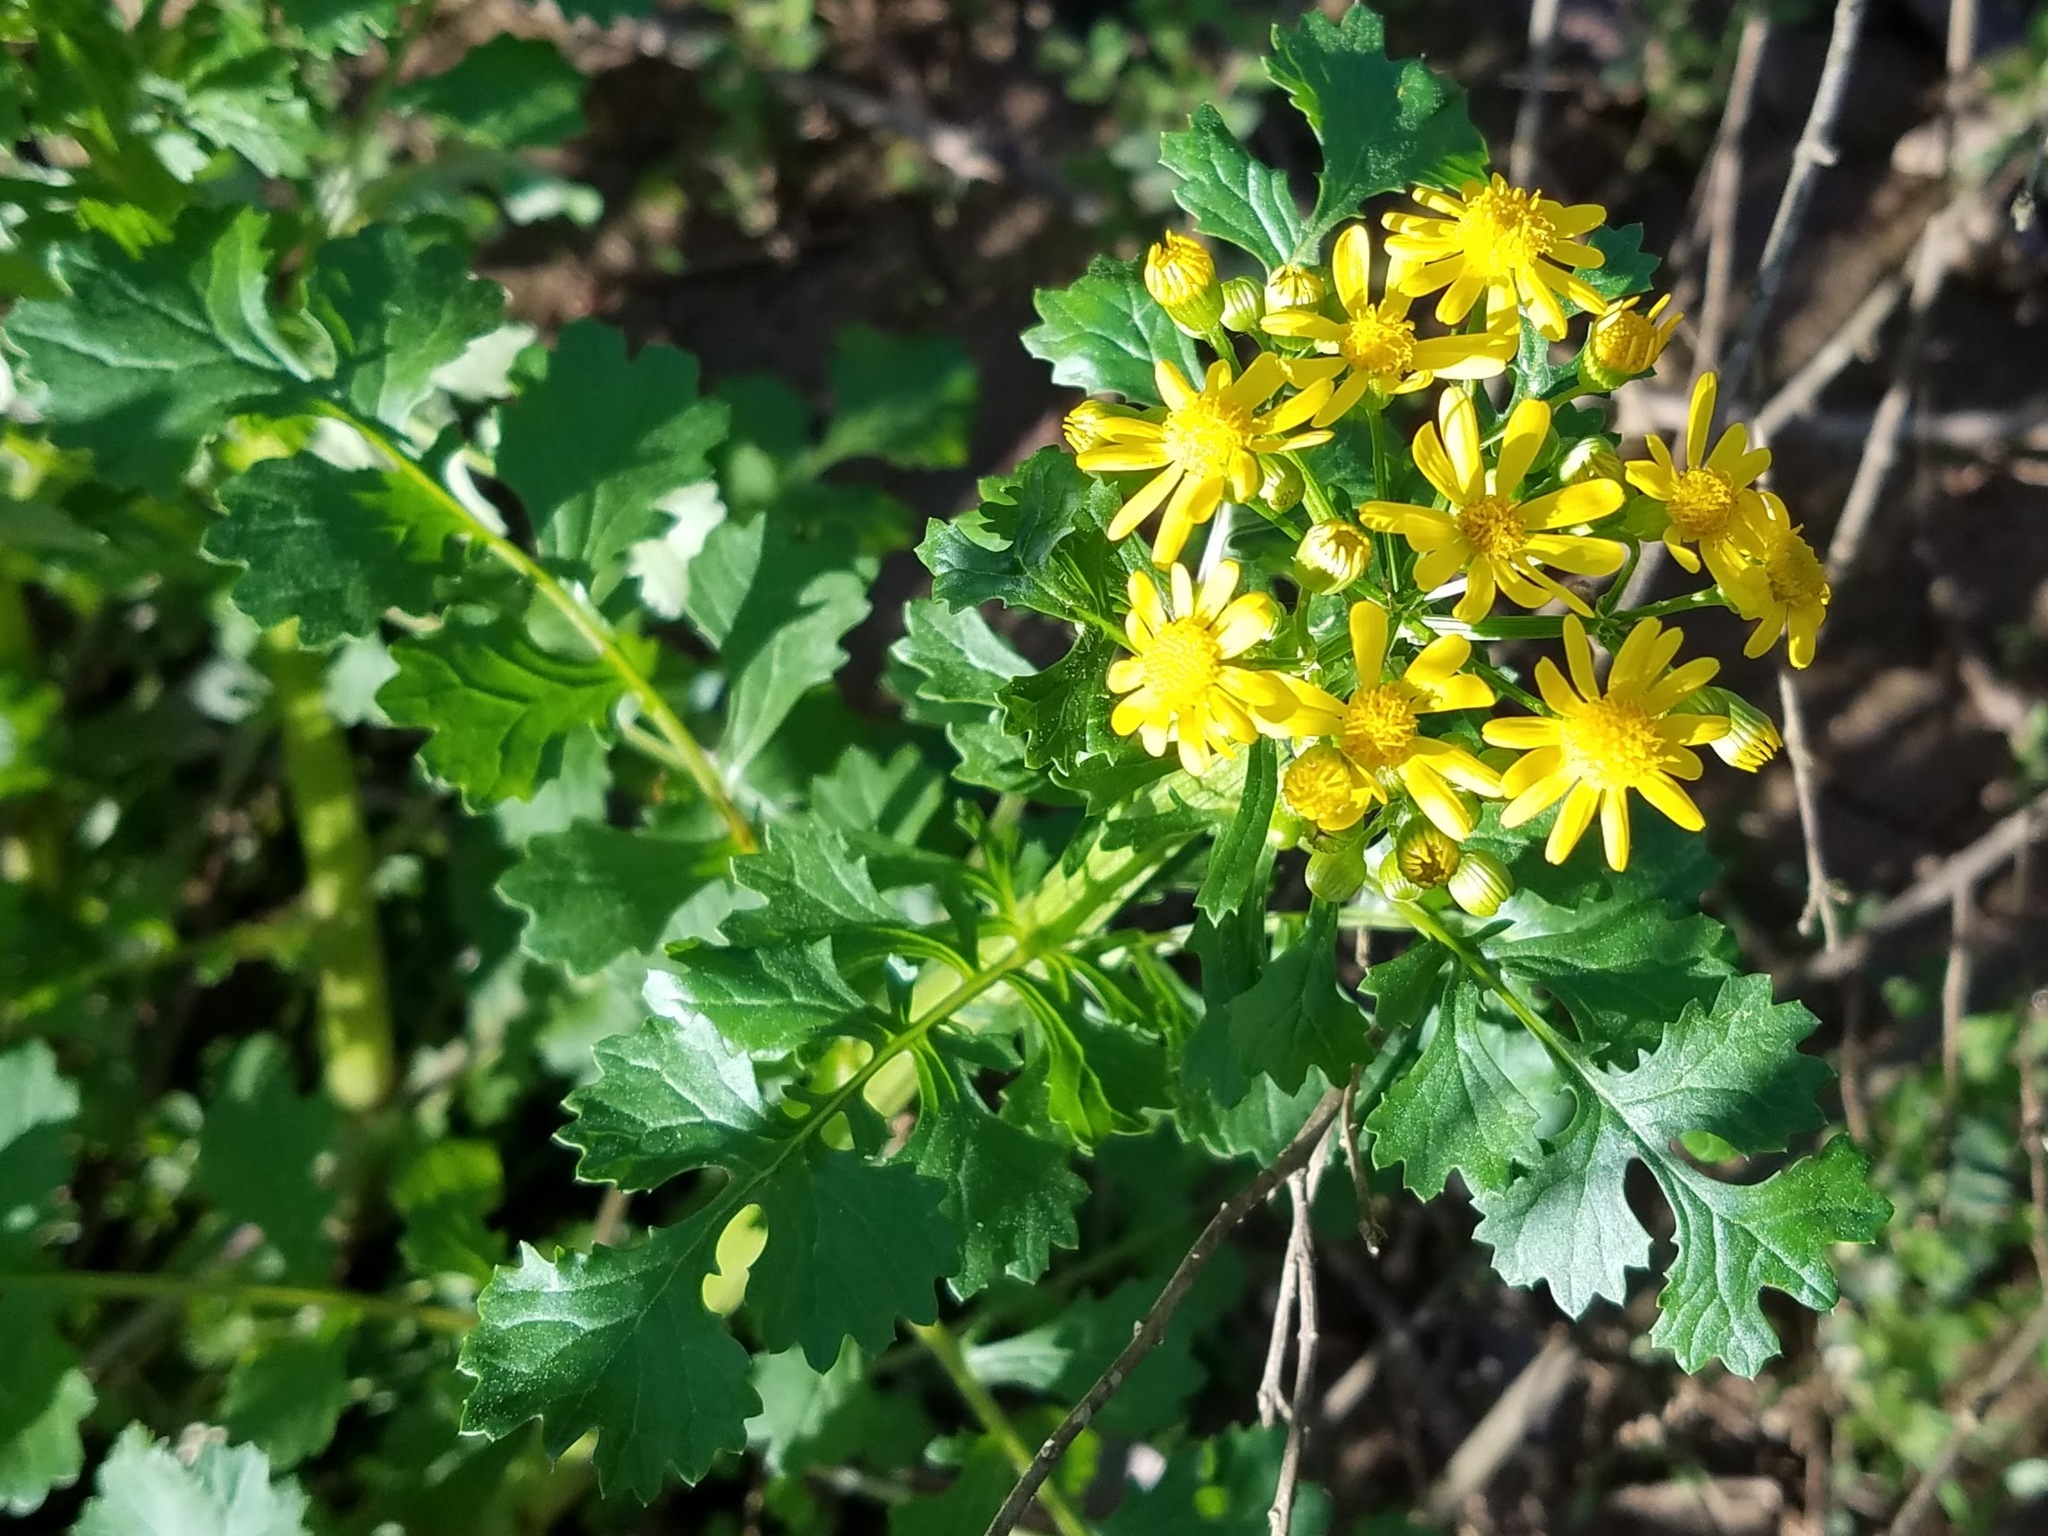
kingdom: Plantae
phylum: Tracheophyta
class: Magnoliopsida
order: Asterales
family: Asteraceae
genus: Packera
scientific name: Packera glabella
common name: Butterweed
